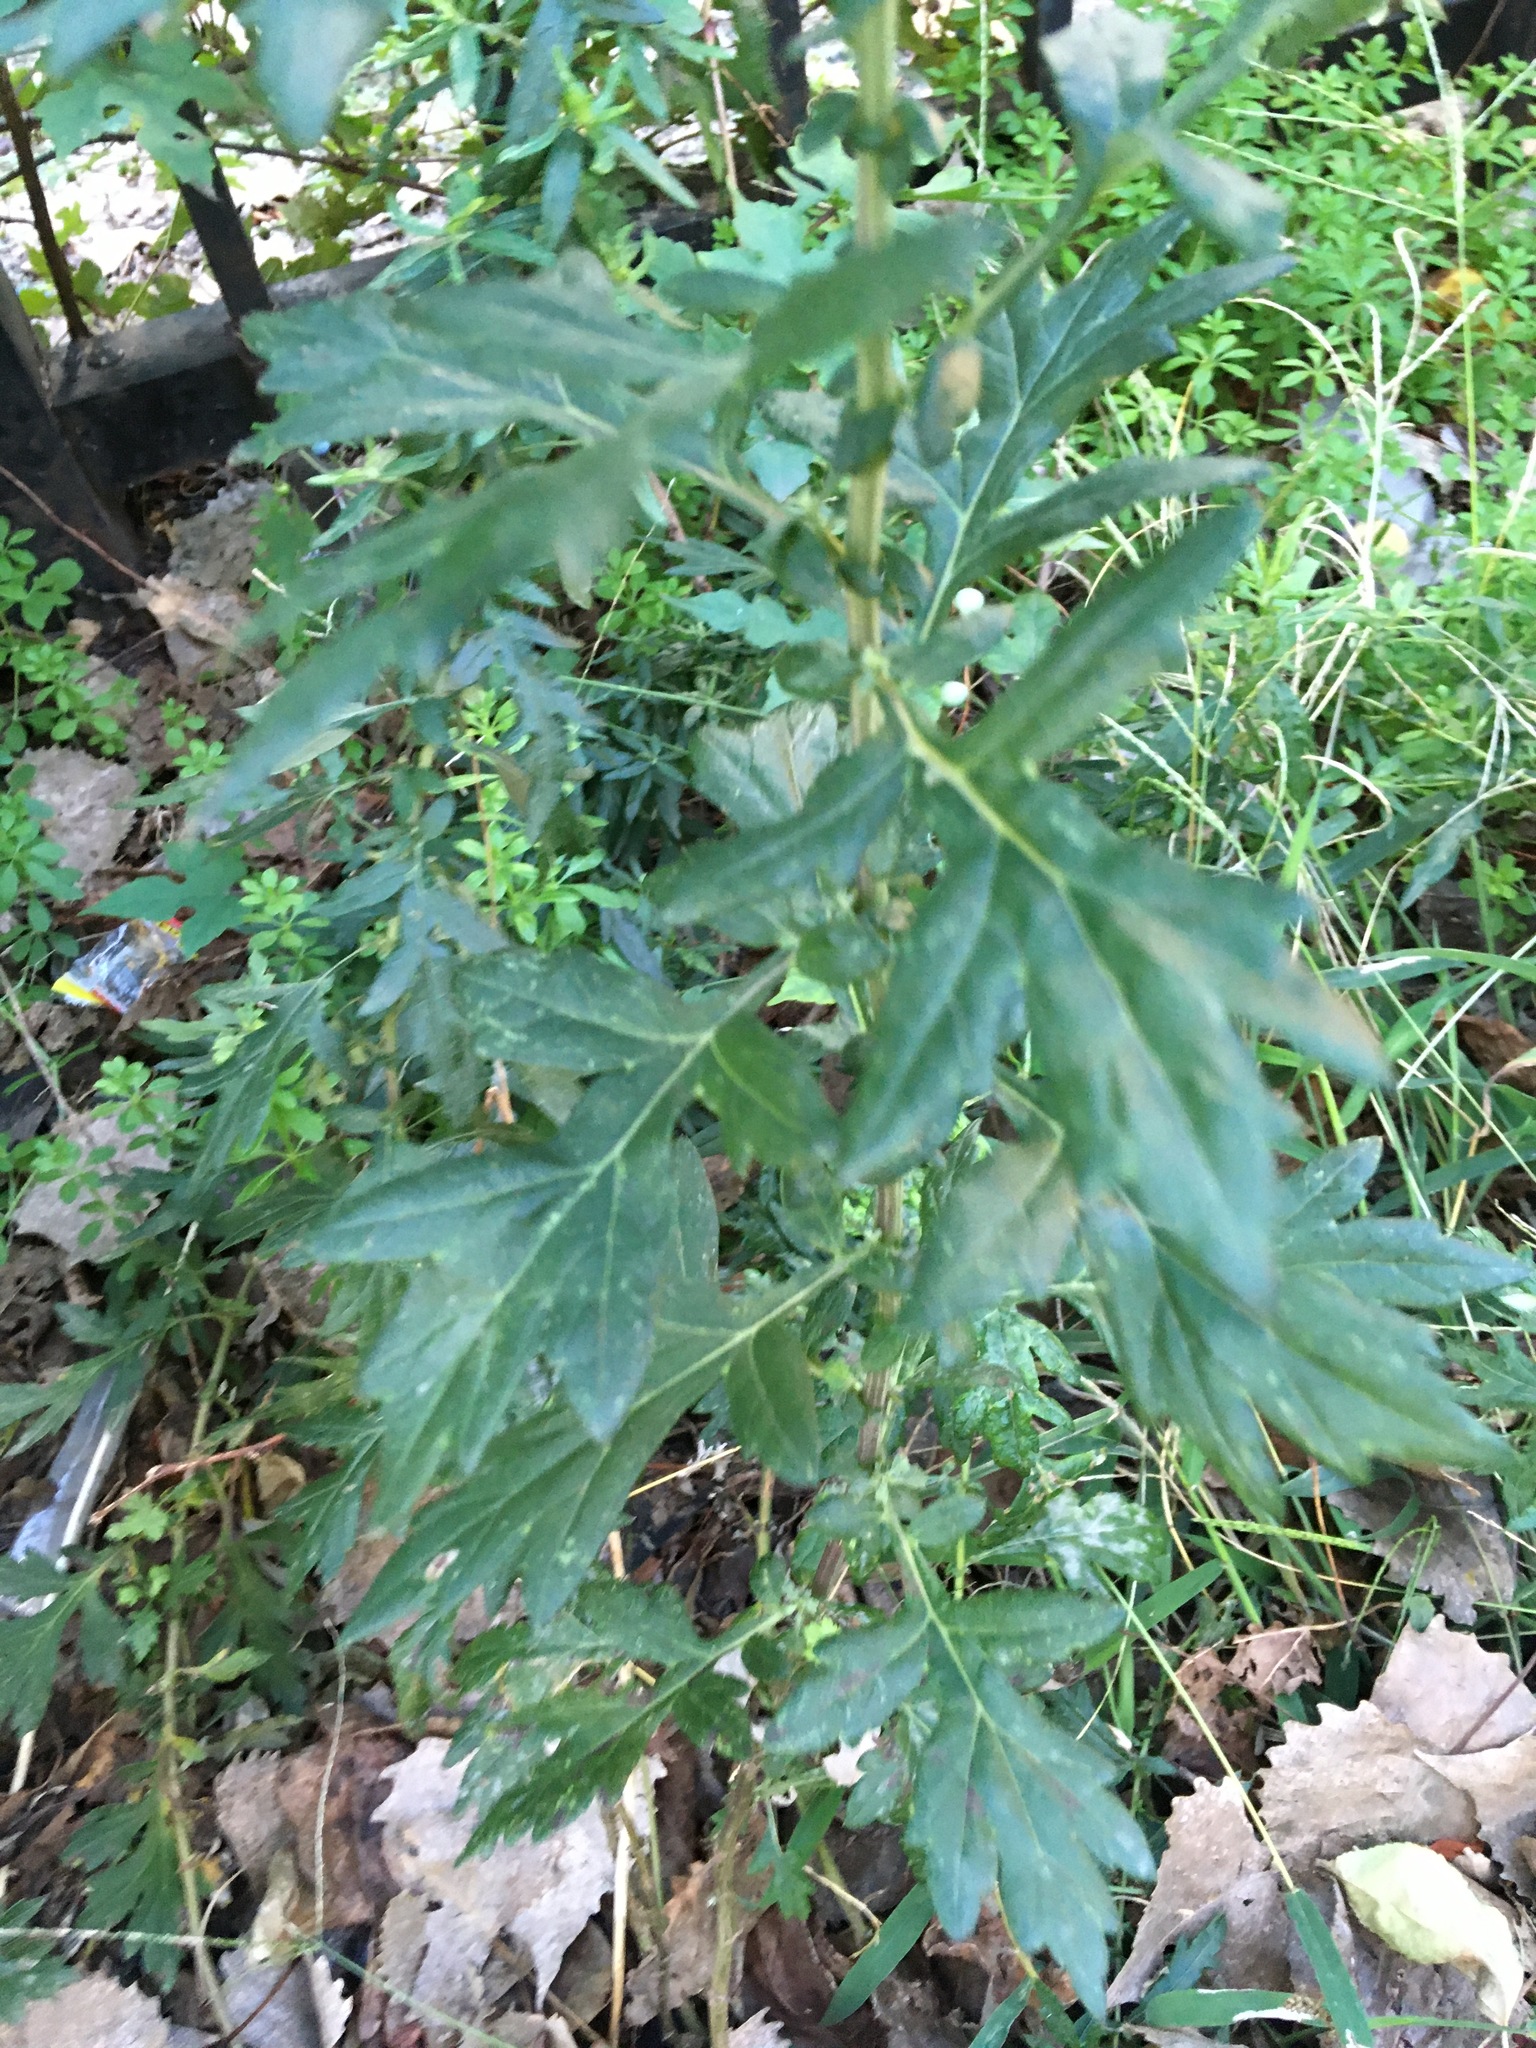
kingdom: Plantae
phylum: Tracheophyta
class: Magnoliopsida
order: Asterales
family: Asteraceae
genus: Artemisia
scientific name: Artemisia vulgaris
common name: Mugwort
